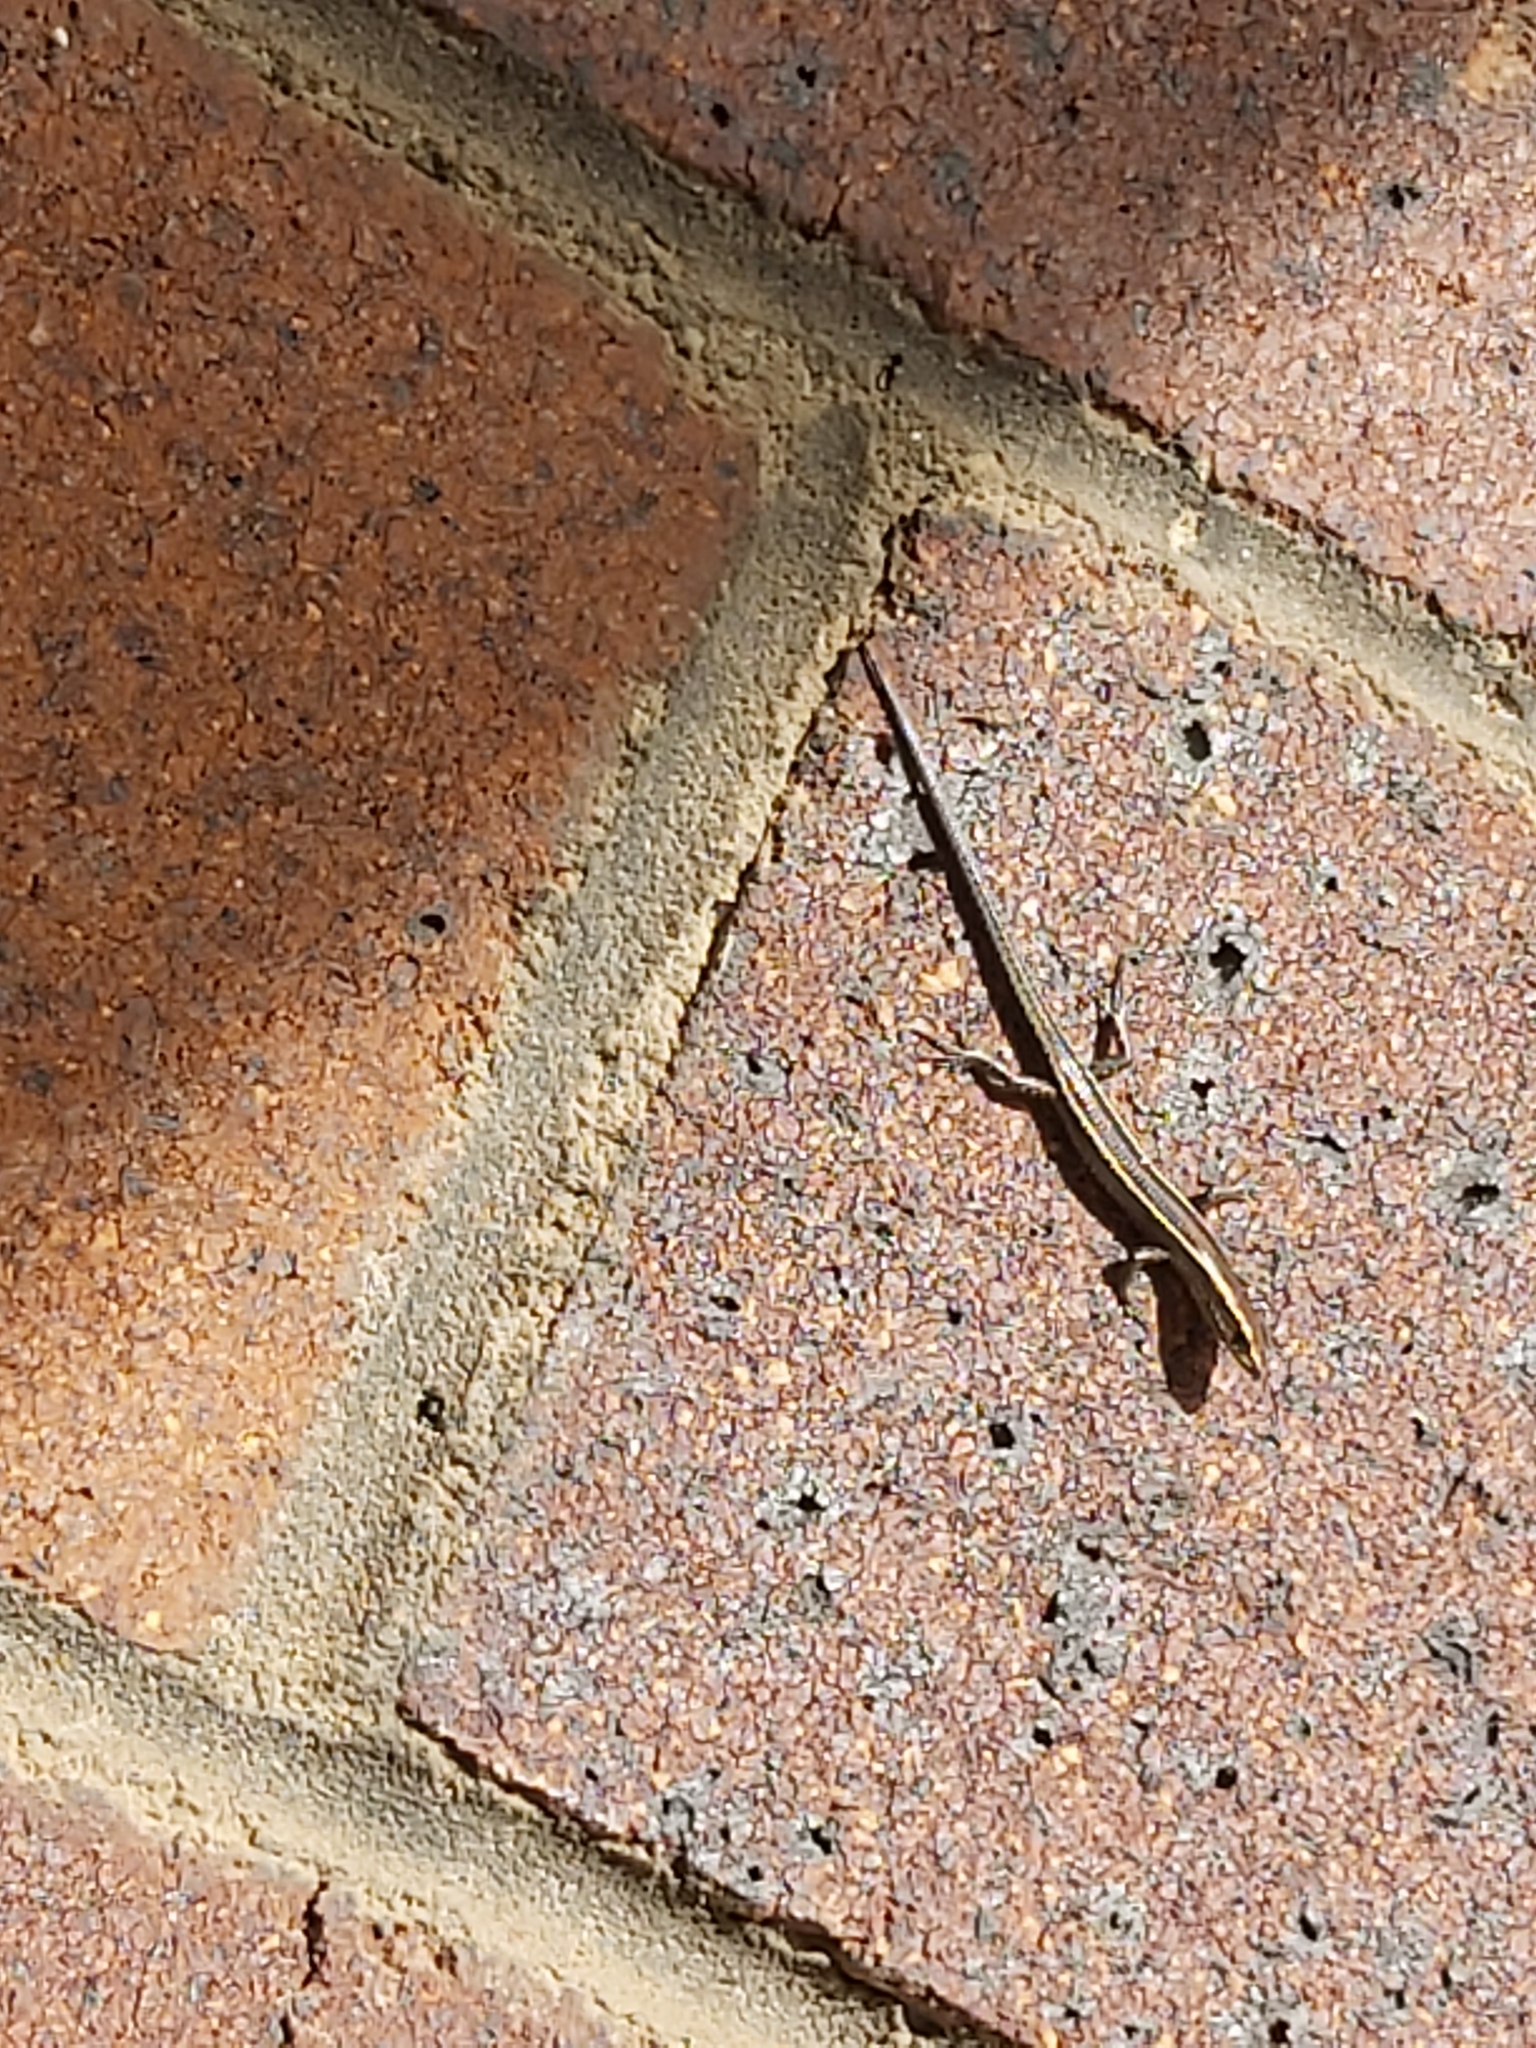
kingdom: Animalia
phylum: Chordata
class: Squamata
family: Scincidae
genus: Cryptoblepharus
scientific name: Cryptoblepharus pulcher
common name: Elegant snake-eyed skink
